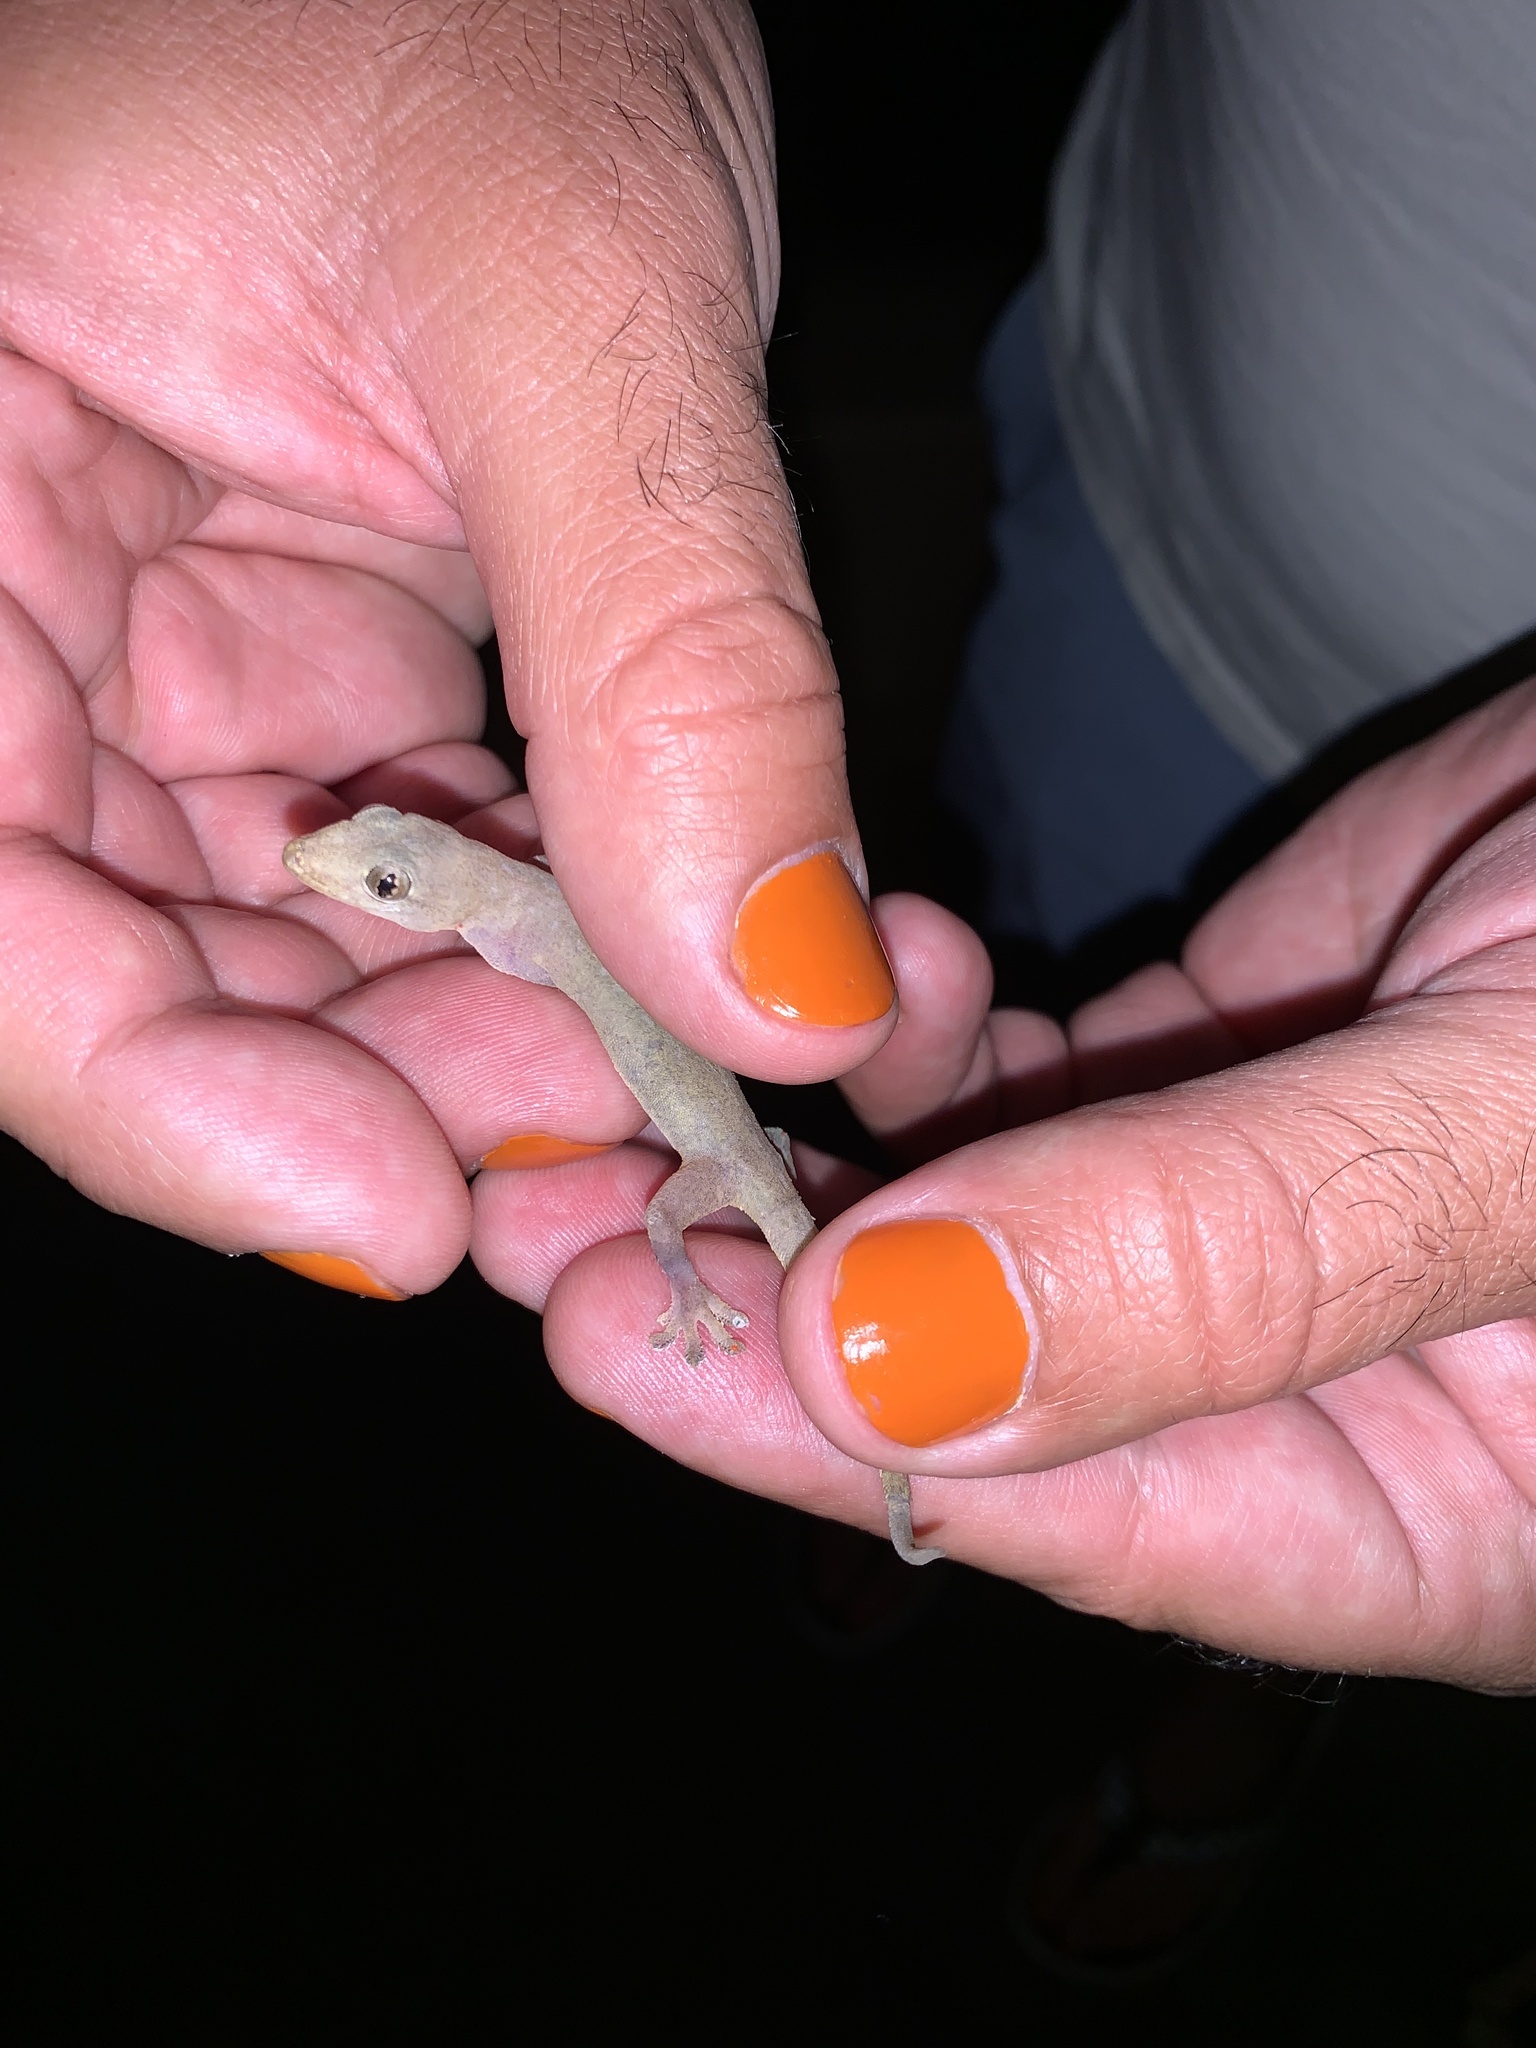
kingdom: Animalia
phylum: Chordata
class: Squamata
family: Gekkonidae
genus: Hemidactylus
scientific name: Hemidactylus garnotii
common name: Indo-pacific gecko
